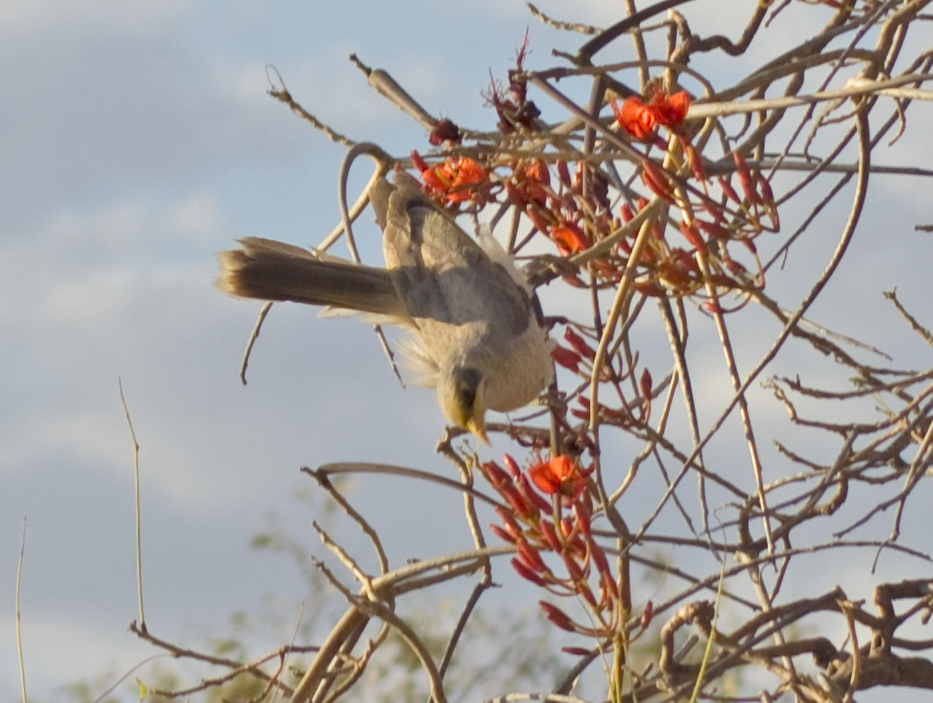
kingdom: Animalia
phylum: Chordata
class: Aves
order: Passeriformes
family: Meliphagidae
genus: Manorina
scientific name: Manorina flavigula
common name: Yellow-throated miner
